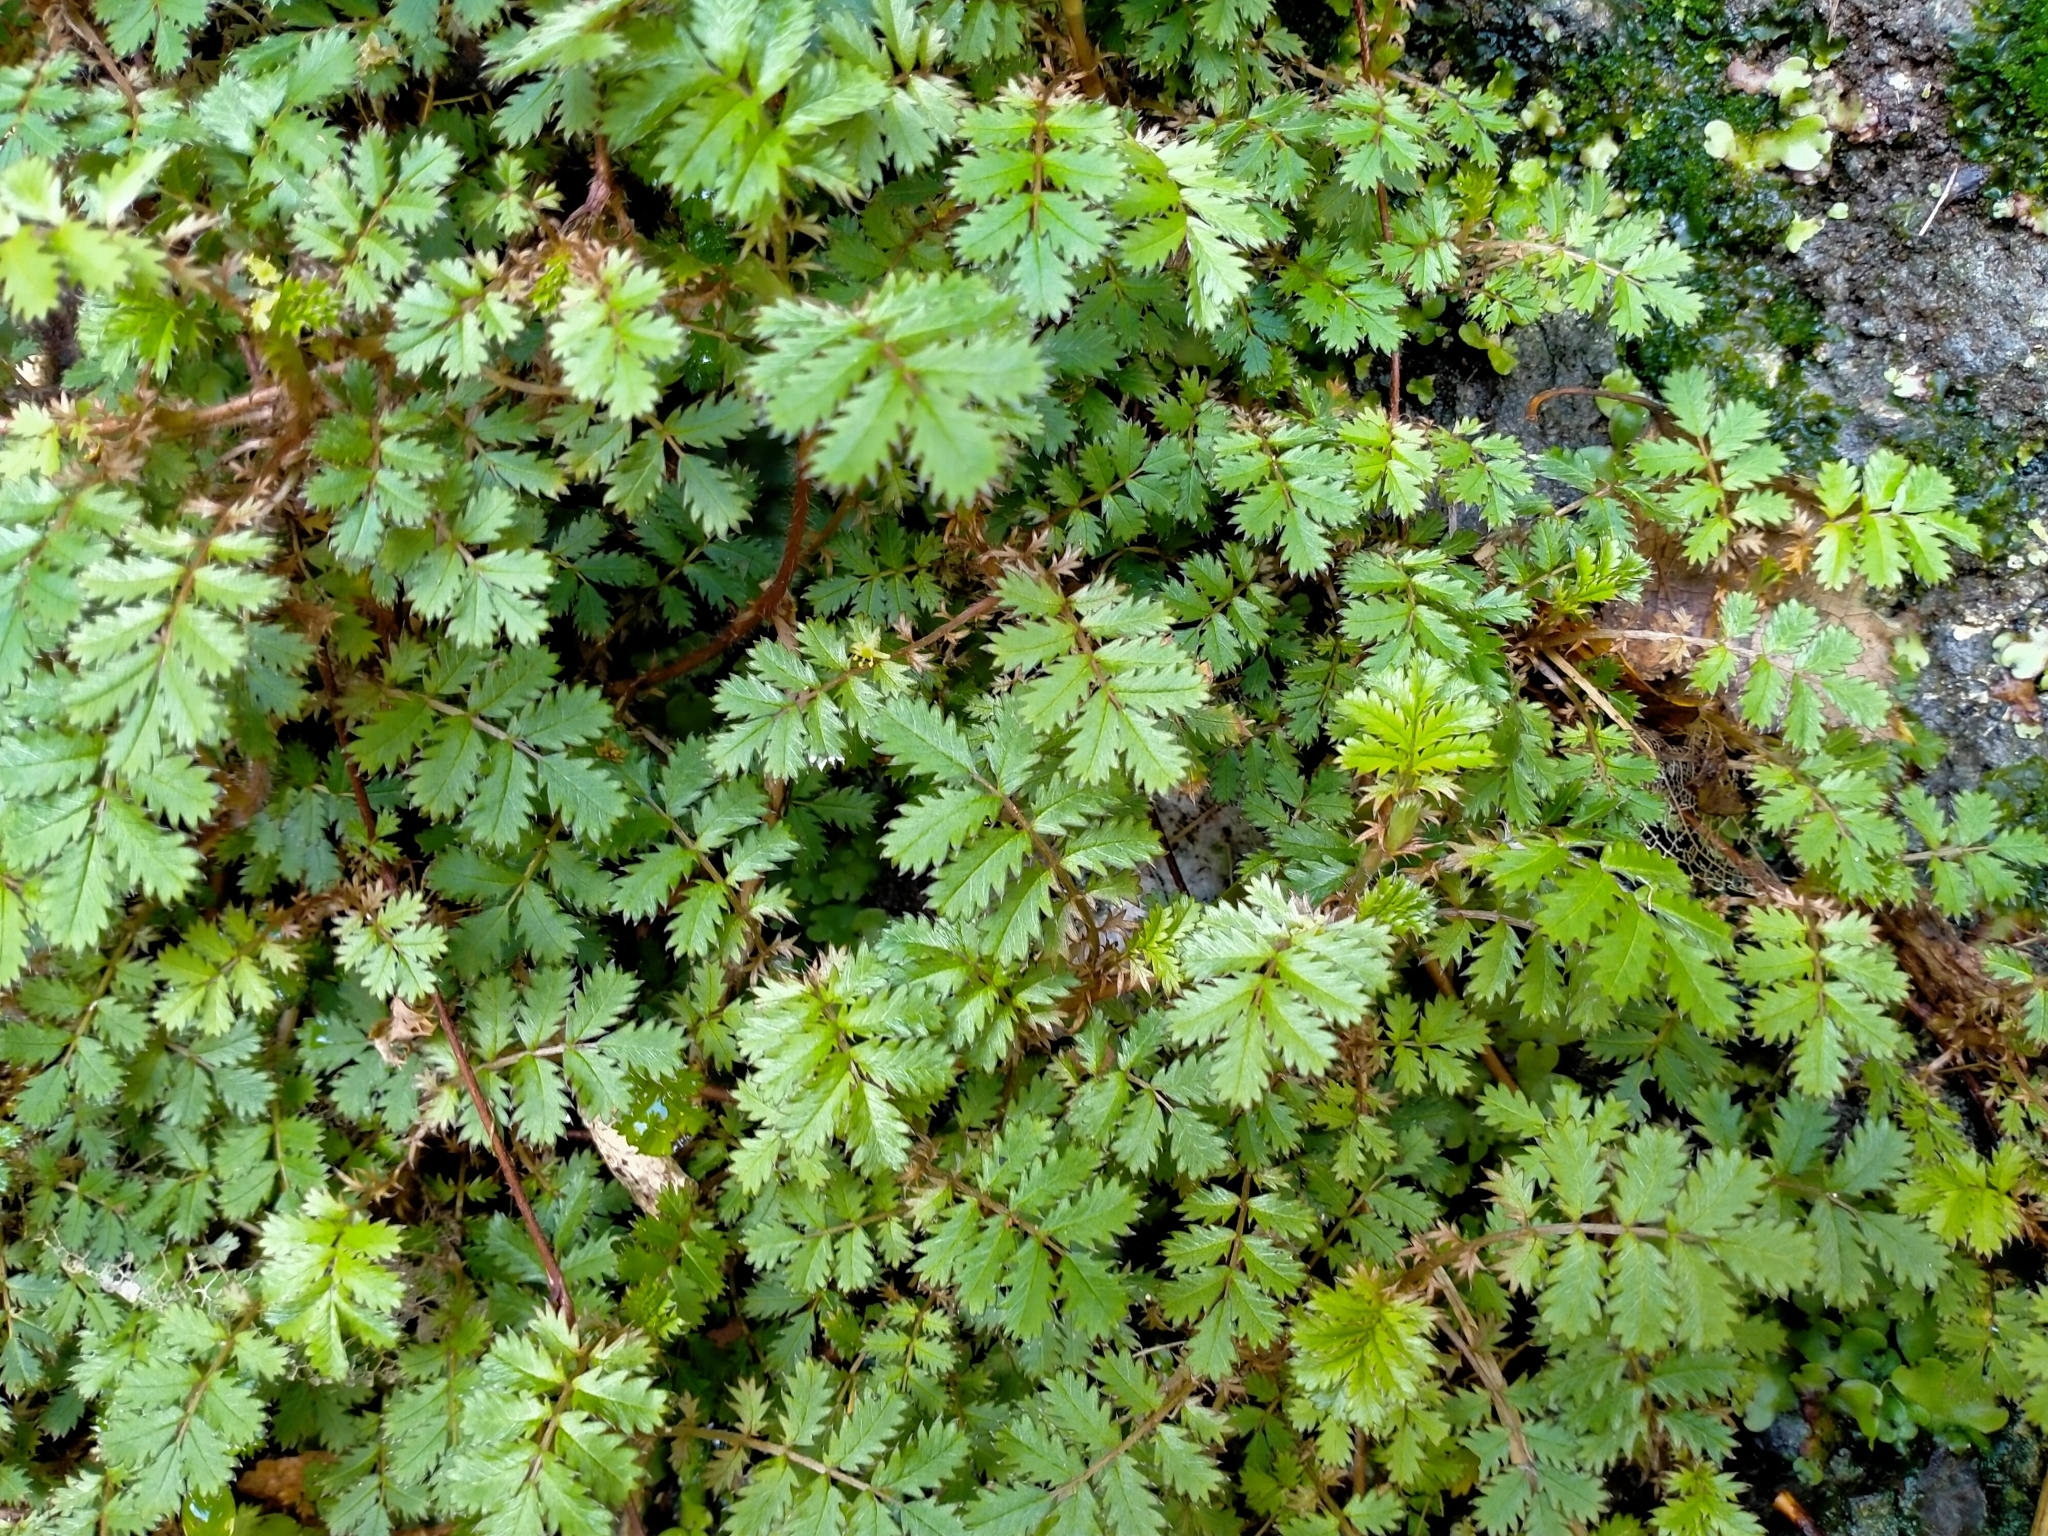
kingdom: Plantae
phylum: Tracheophyta
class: Magnoliopsida
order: Rosales
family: Rosaceae
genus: Acaena
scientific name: Acaena anserinifolia
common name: Bronze pirri-pirri-bur
